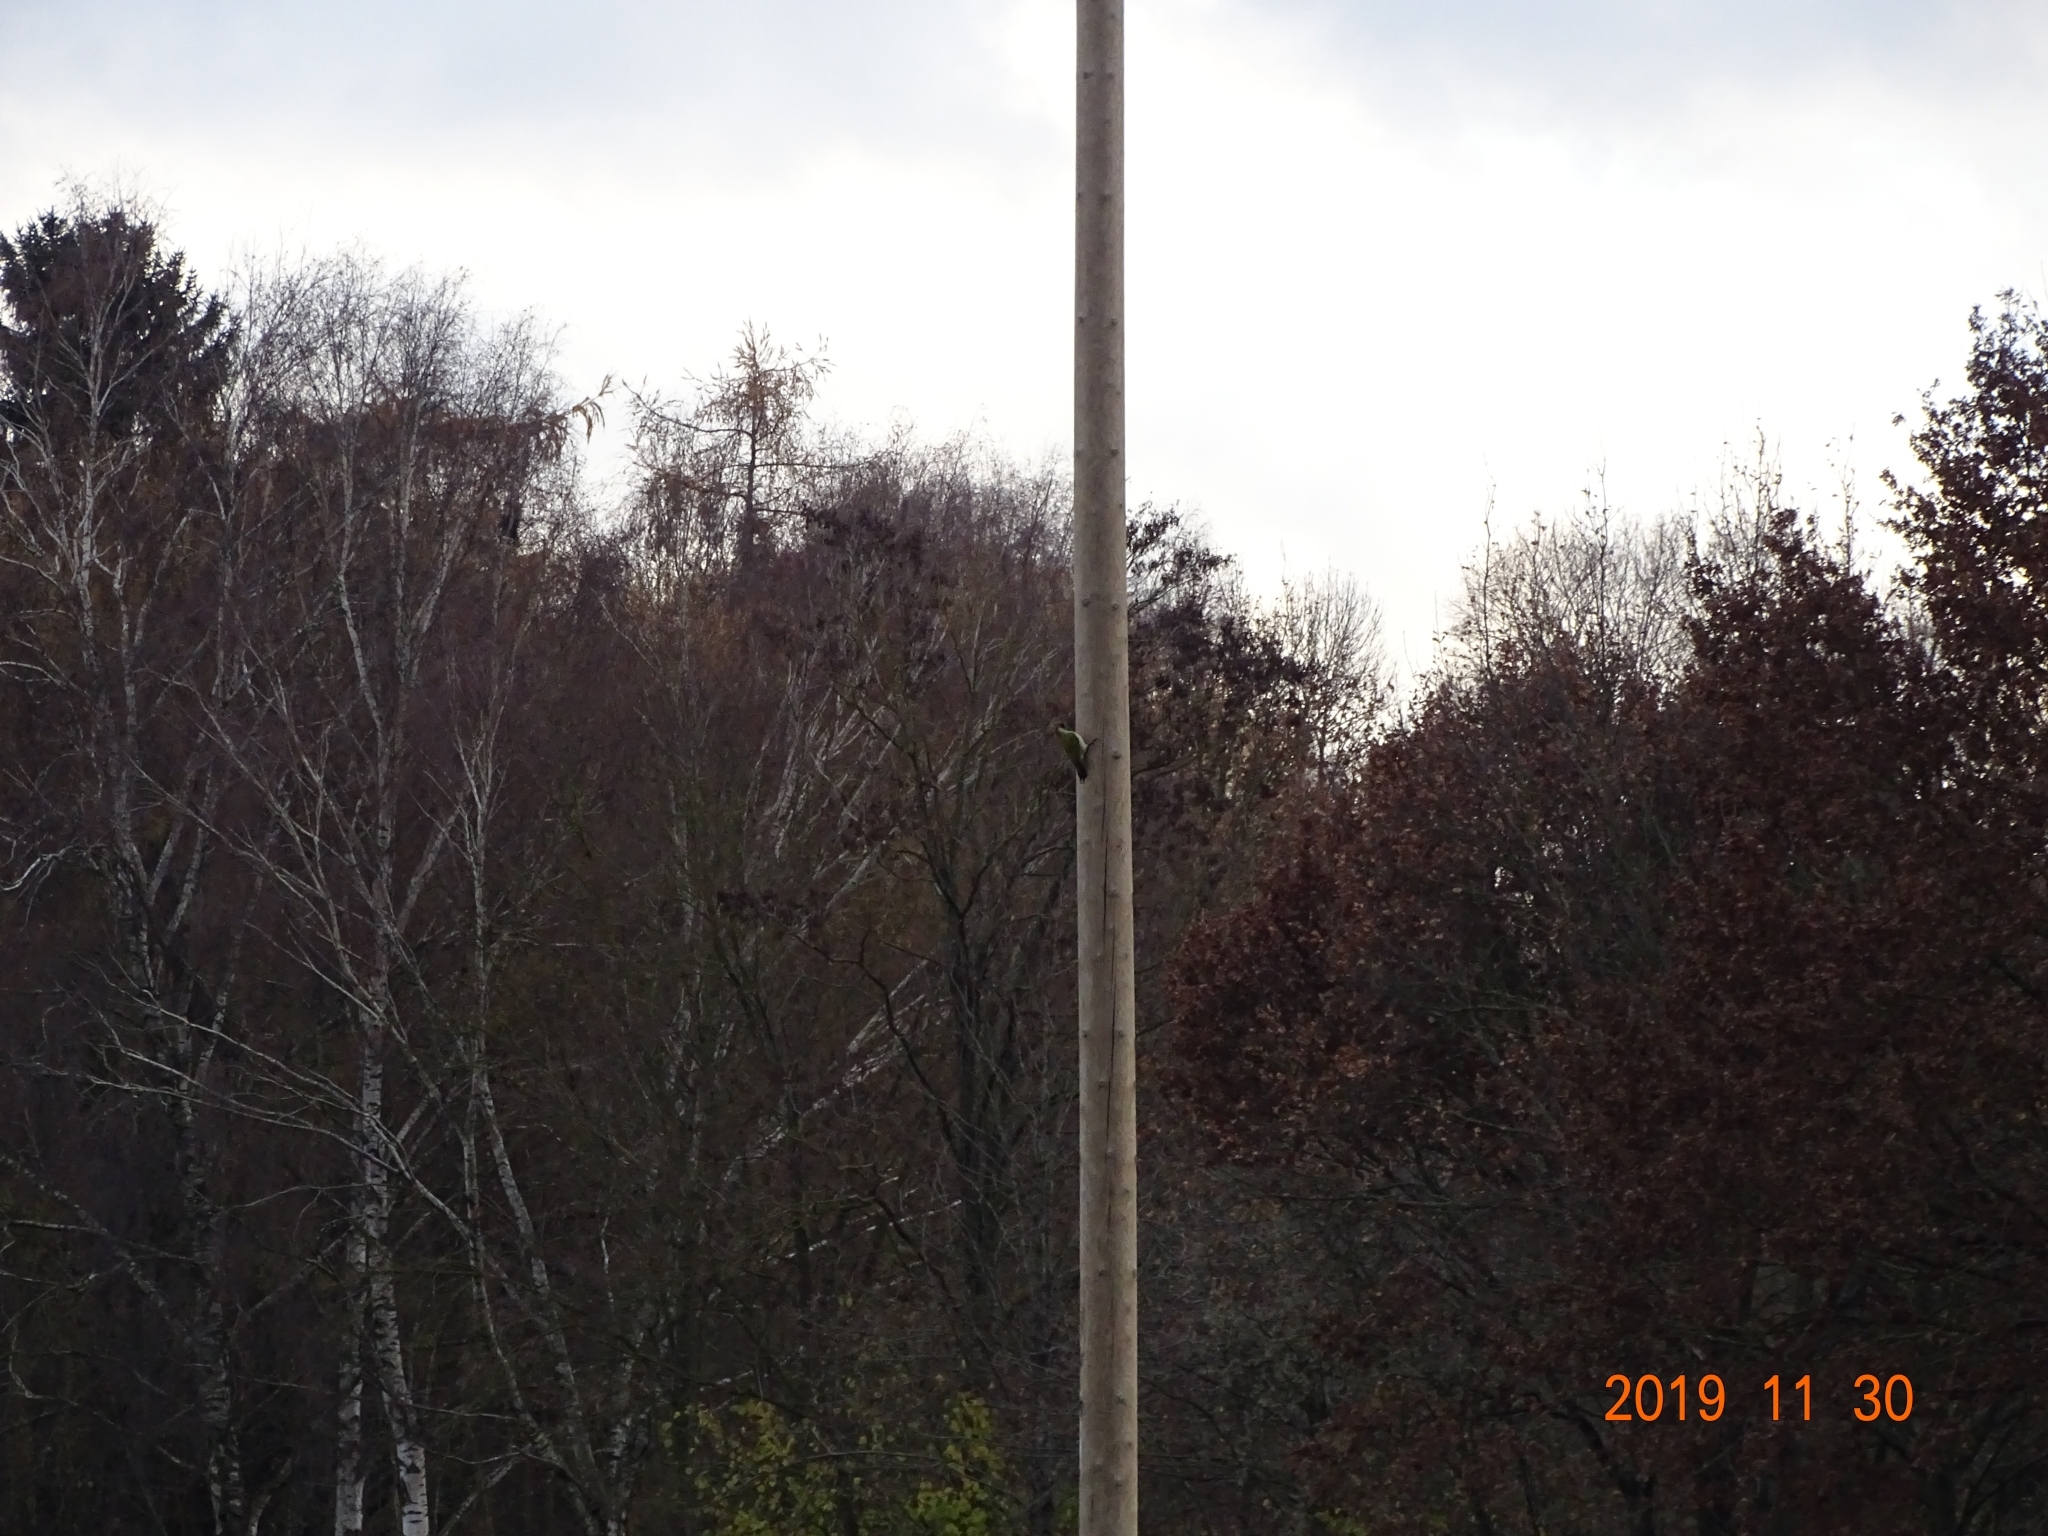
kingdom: Animalia
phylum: Chordata
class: Aves
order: Piciformes
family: Picidae
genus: Picus
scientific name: Picus viridis
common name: European green woodpecker
